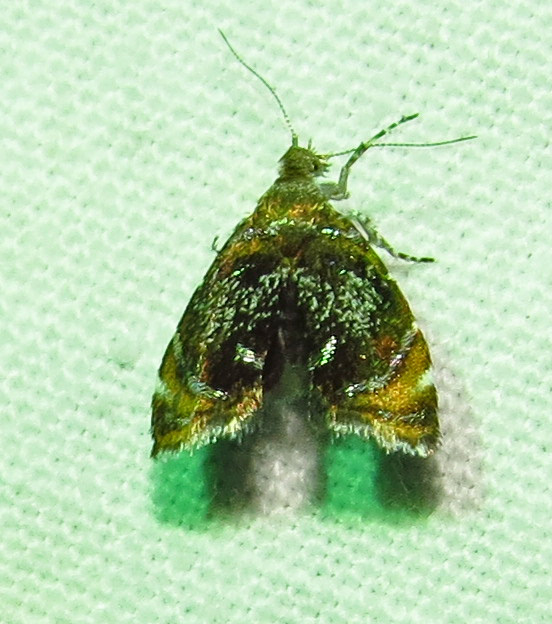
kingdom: Animalia
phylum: Arthropoda
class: Insecta
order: Lepidoptera
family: Choreutidae
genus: Prochoreutis
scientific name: Prochoreutis inflatella
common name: Skullcap skeletonizer moth
